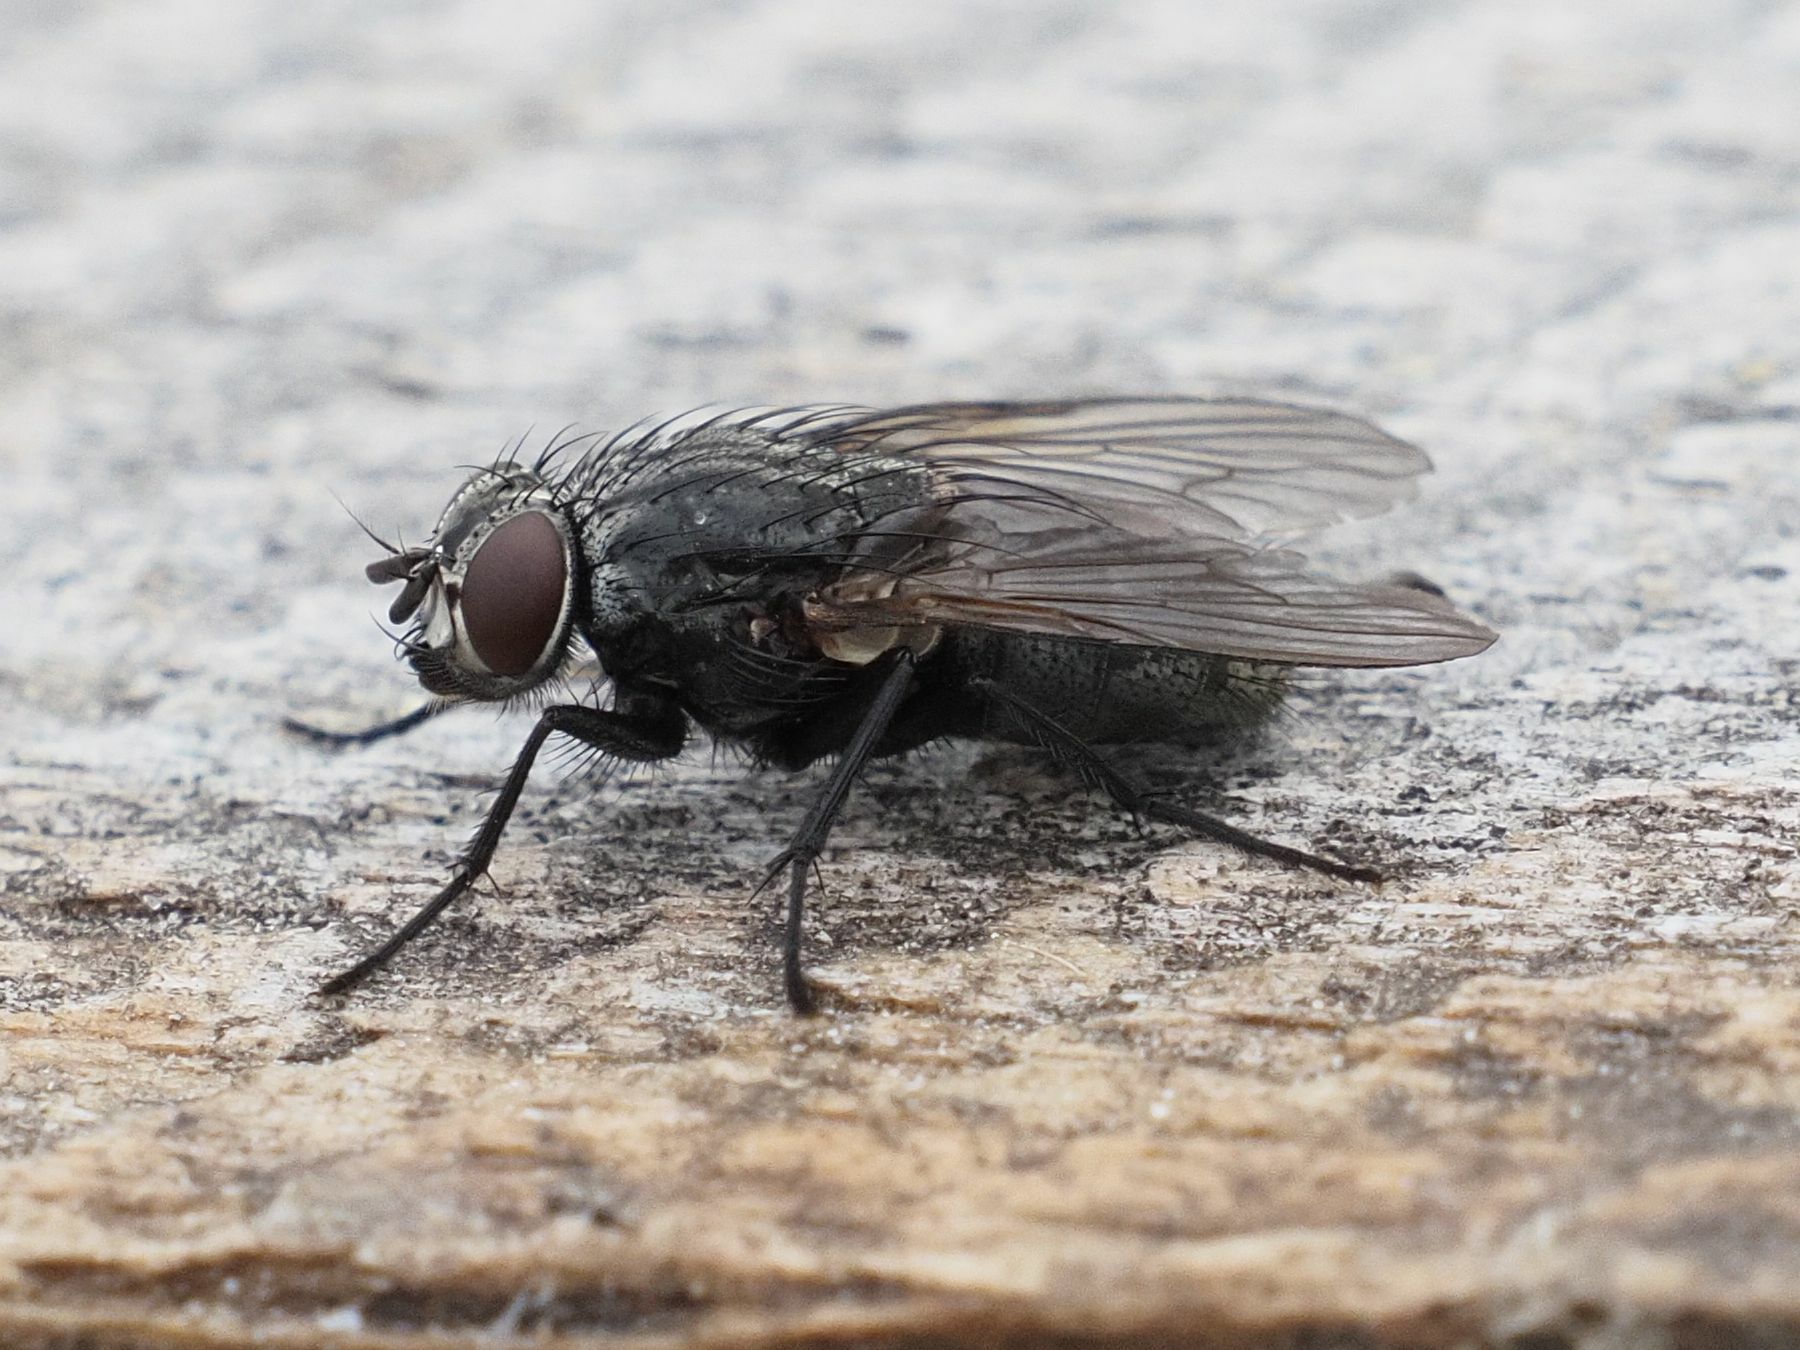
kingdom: Animalia
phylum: Arthropoda
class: Insecta
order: Diptera
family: Muscidae
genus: Muscina
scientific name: Muscina levida
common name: House fly
